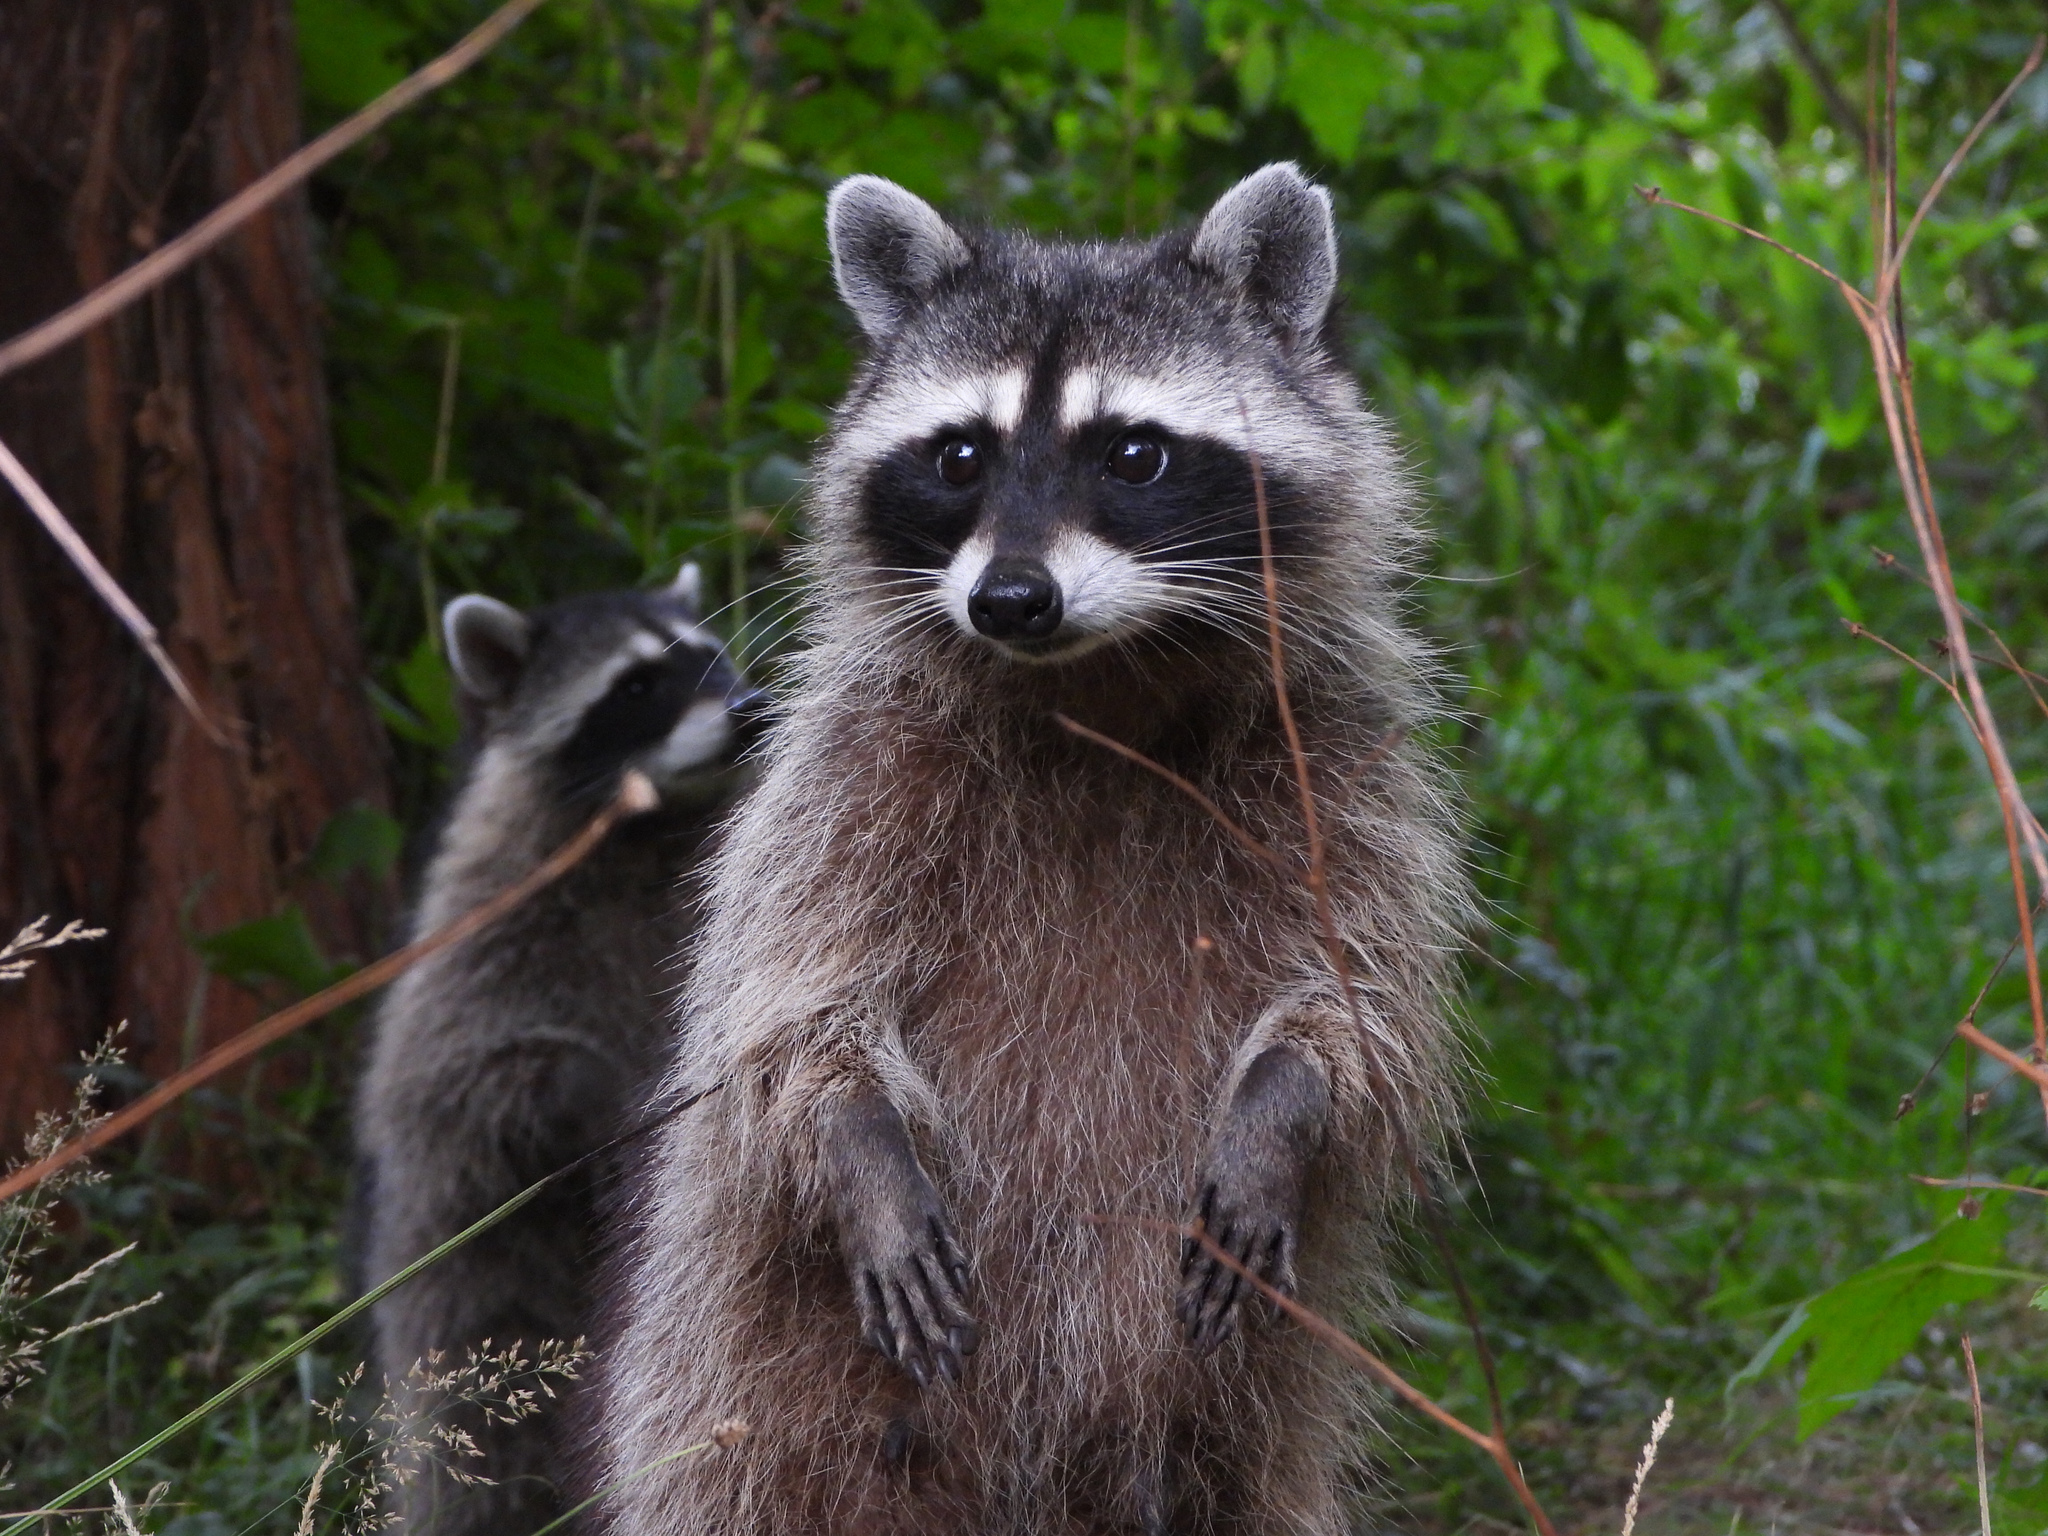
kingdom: Animalia
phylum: Chordata
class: Mammalia
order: Carnivora
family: Procyonidae
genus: Procyon
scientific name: Procyon lotor
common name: Raccoon
